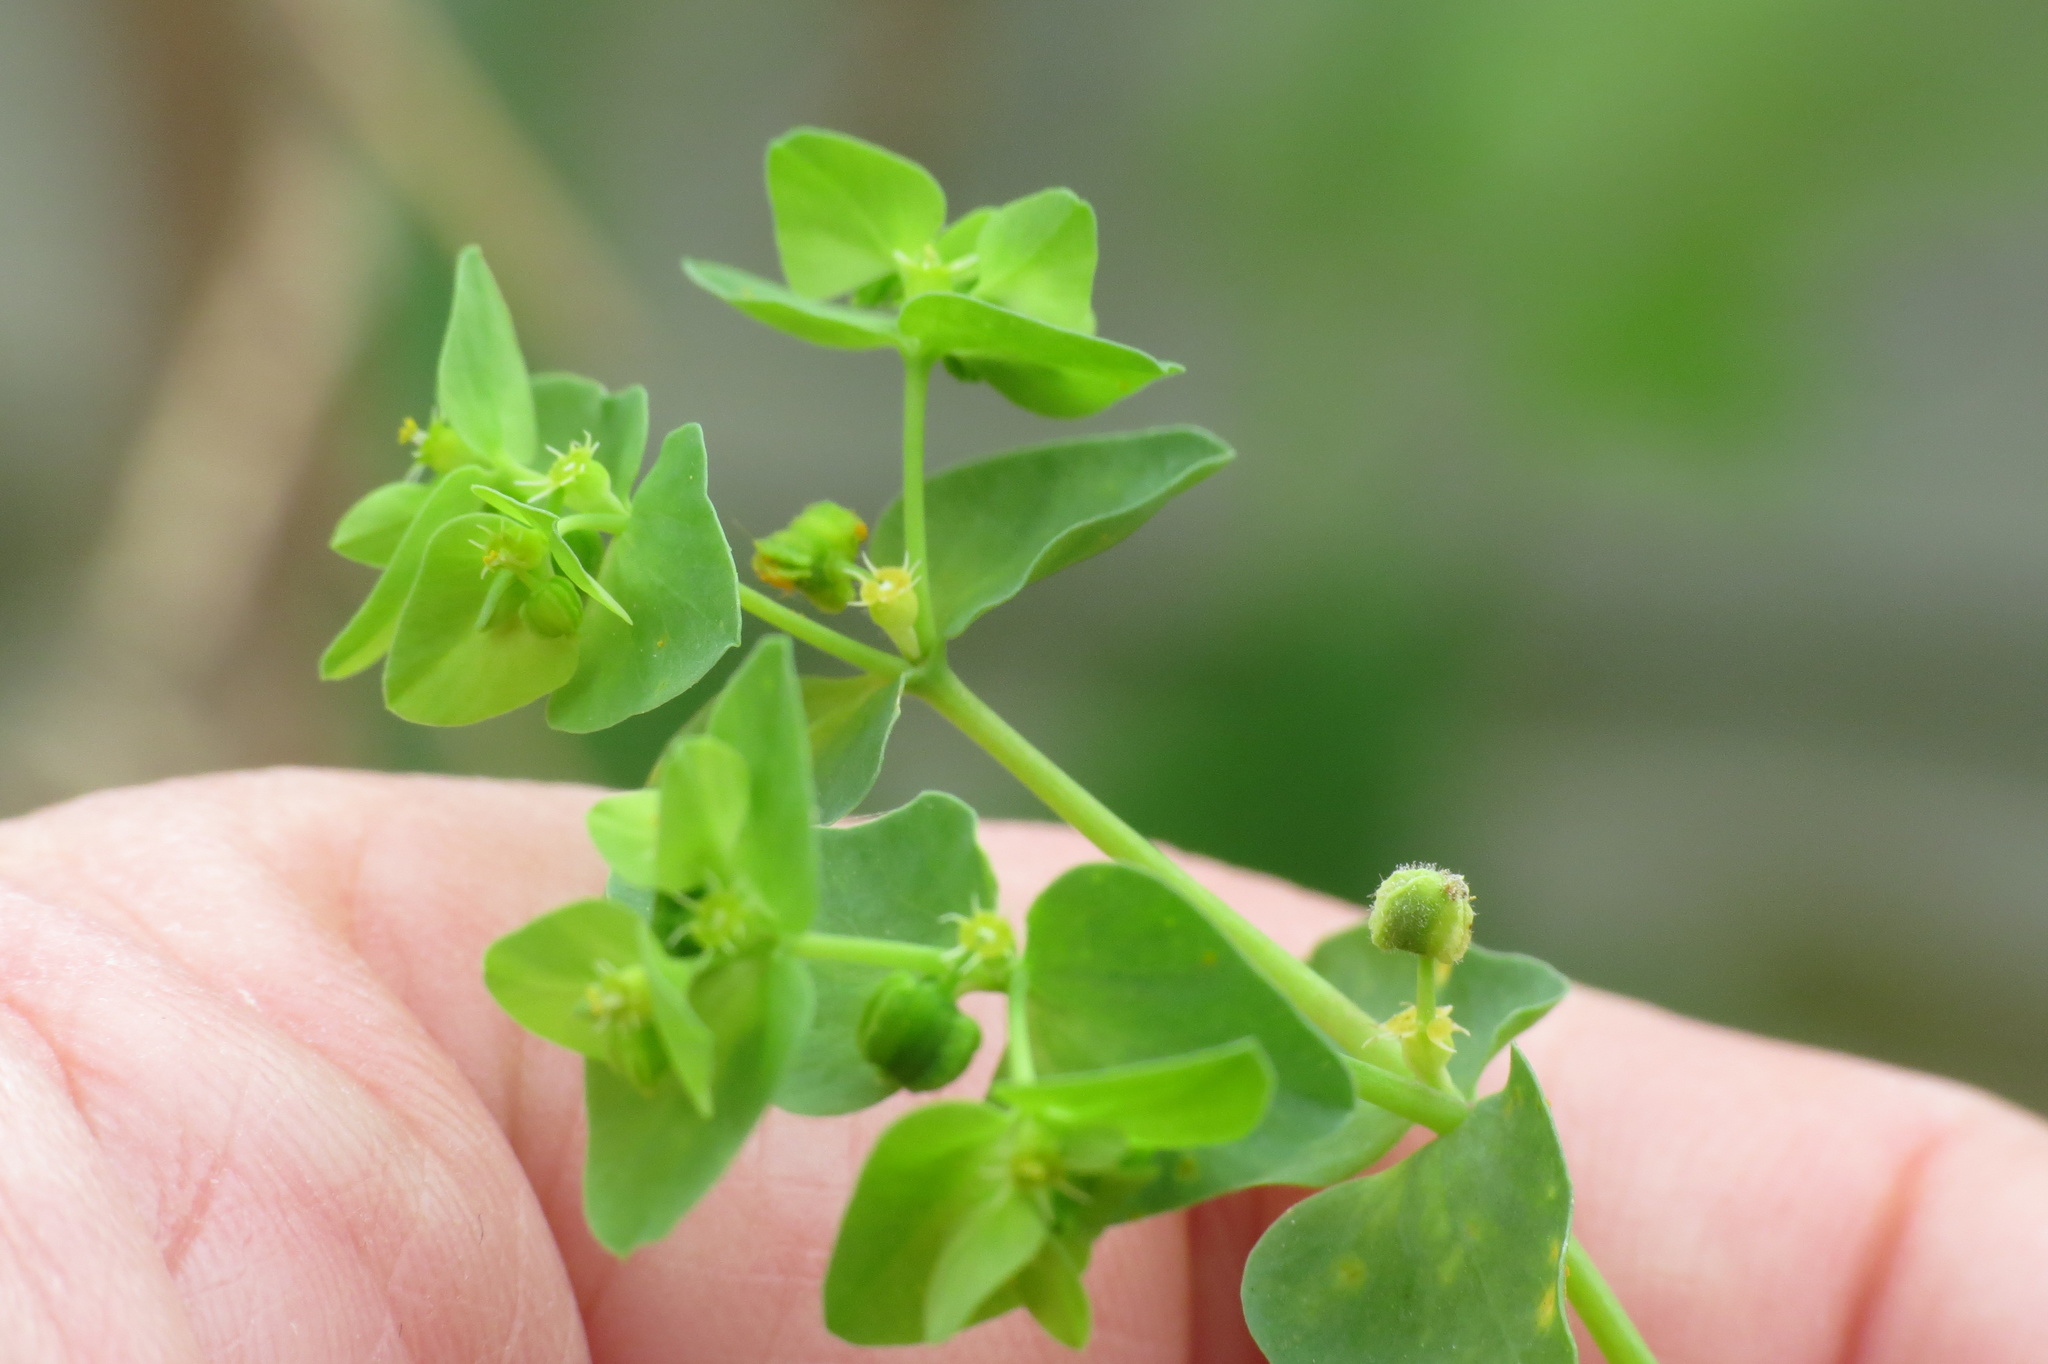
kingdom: Plantae
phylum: Tracheophyta
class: Magnoliopsida
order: Malpighiales
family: Euphorbiaceae
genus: Euphorbia
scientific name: Euphorbia peplus
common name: Petty spurge
